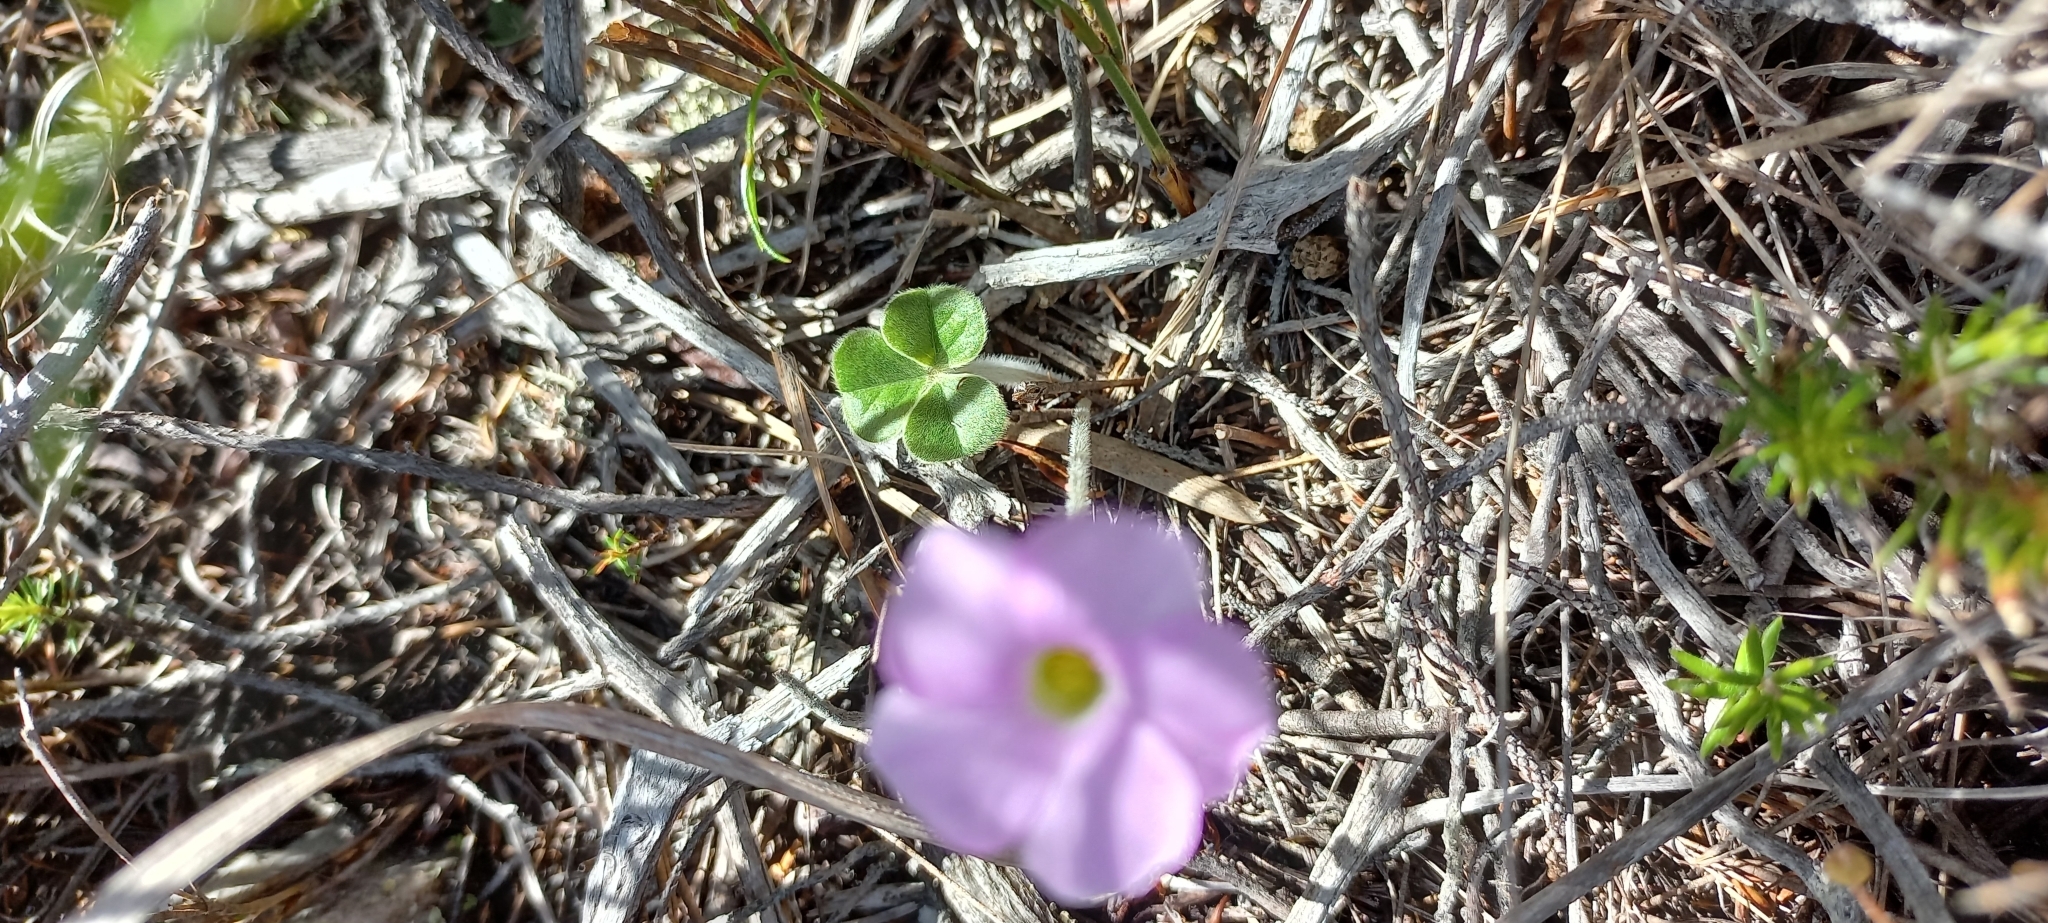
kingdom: Plantae
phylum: Tracheophyta
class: Magnoliopsida
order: Oxalidales
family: Oxalidaceae
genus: Oxalis
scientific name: Oxalis truncatula
